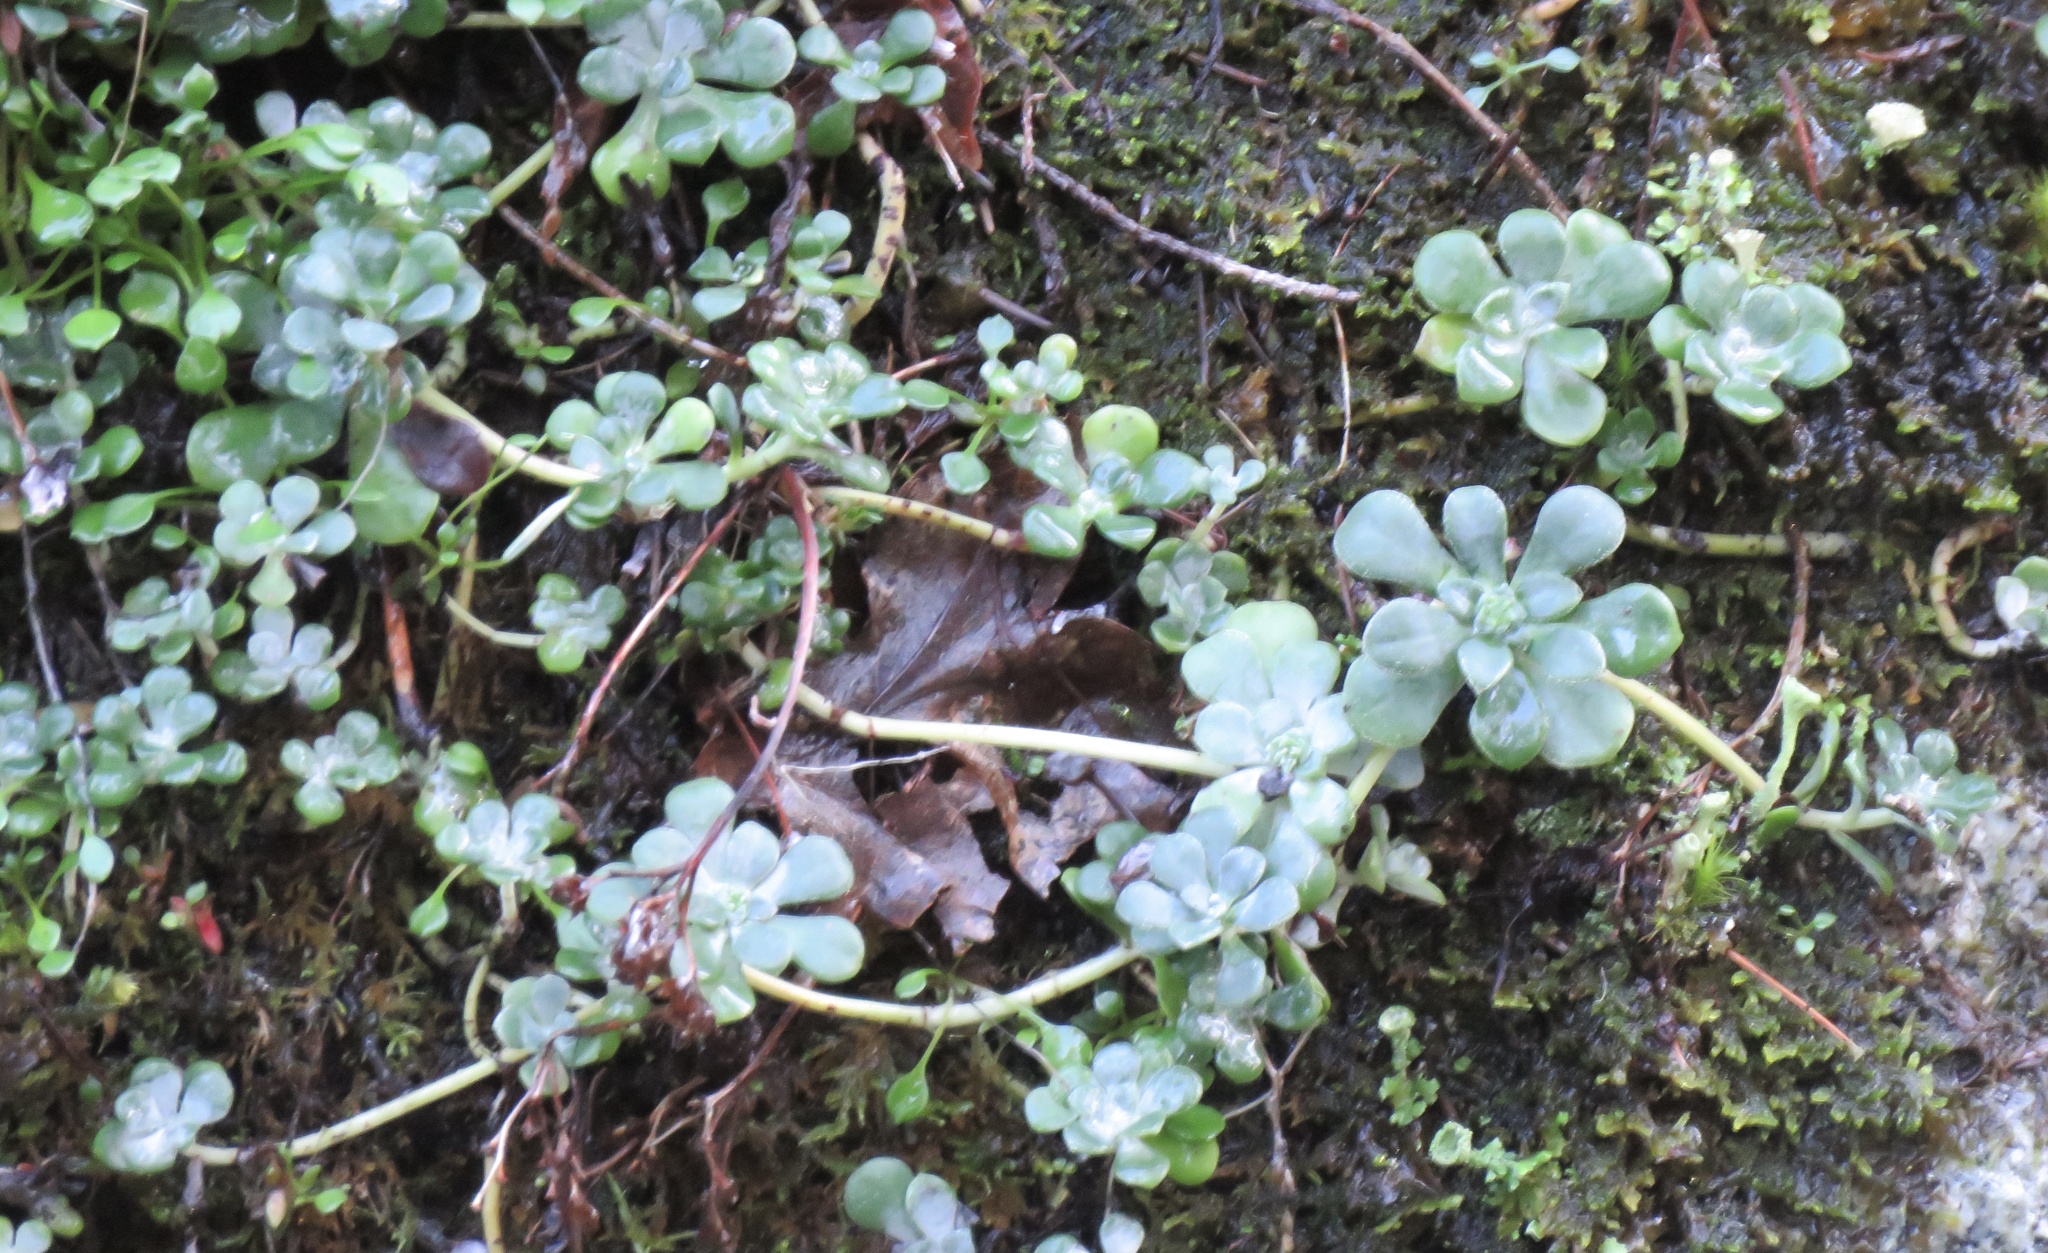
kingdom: Plantae
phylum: Tracheophyta
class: Magnoliopsida
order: Saxifragales
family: Crassulaceae
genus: Sedum
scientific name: Sedum spathulifolium
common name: Colorado stonecrop
